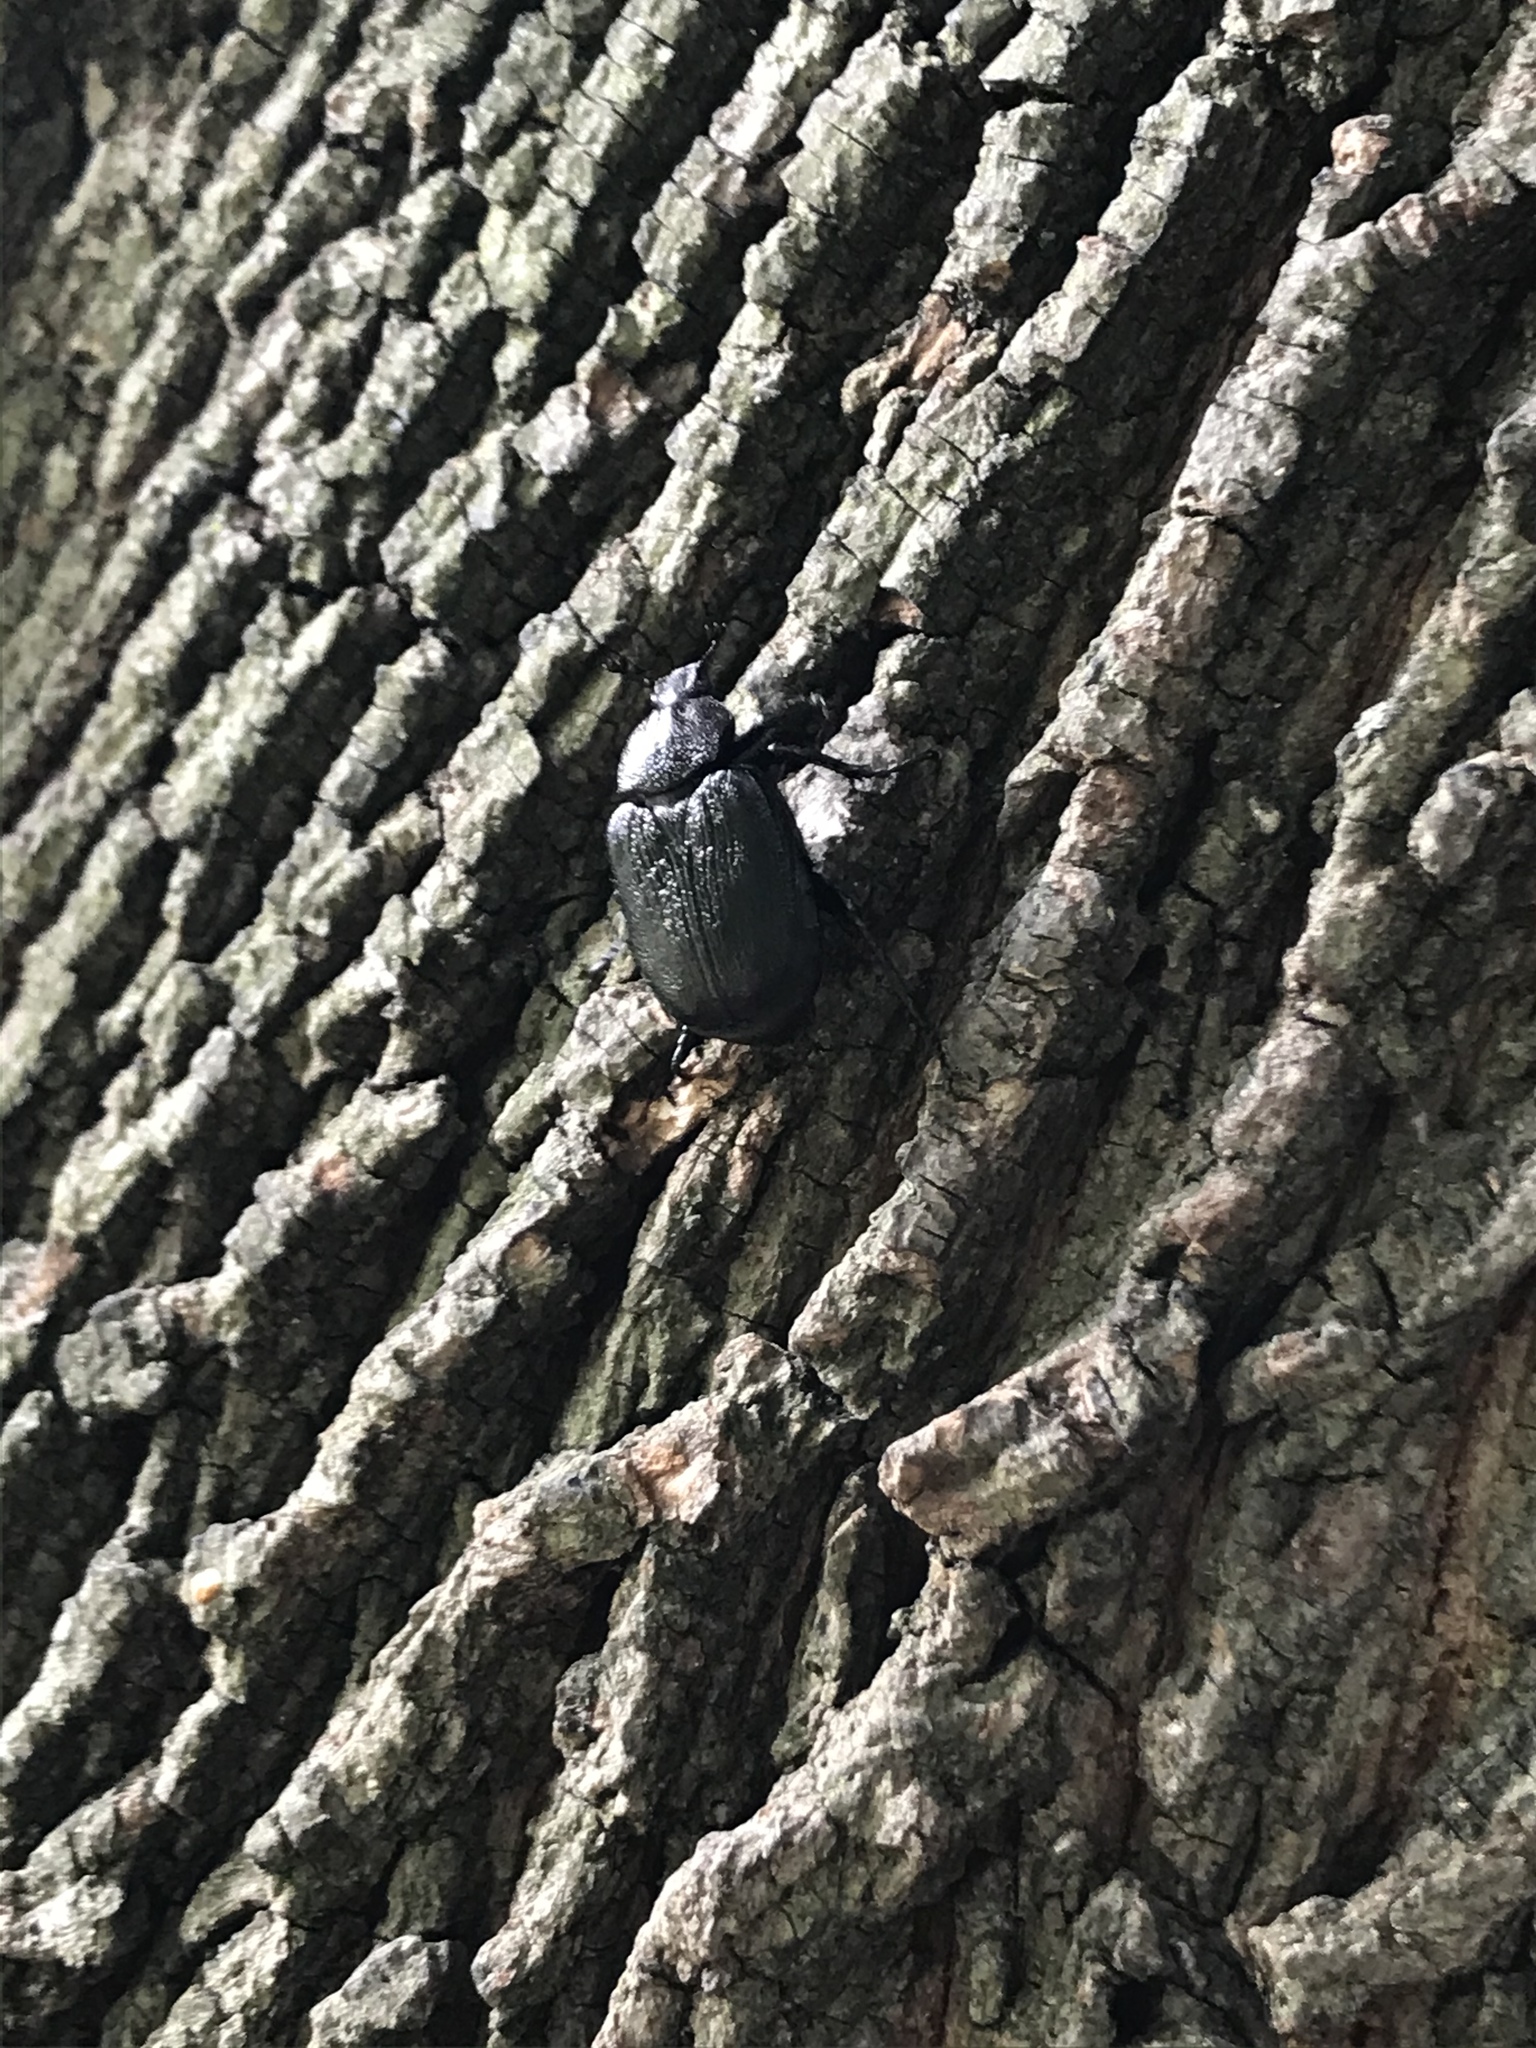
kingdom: Animalia
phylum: Arthropoda
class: Insecta
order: Coleoptera
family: Scarabaeidae
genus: Osmoderma
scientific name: Osmoderma scabra
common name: Rough hermit beetle
